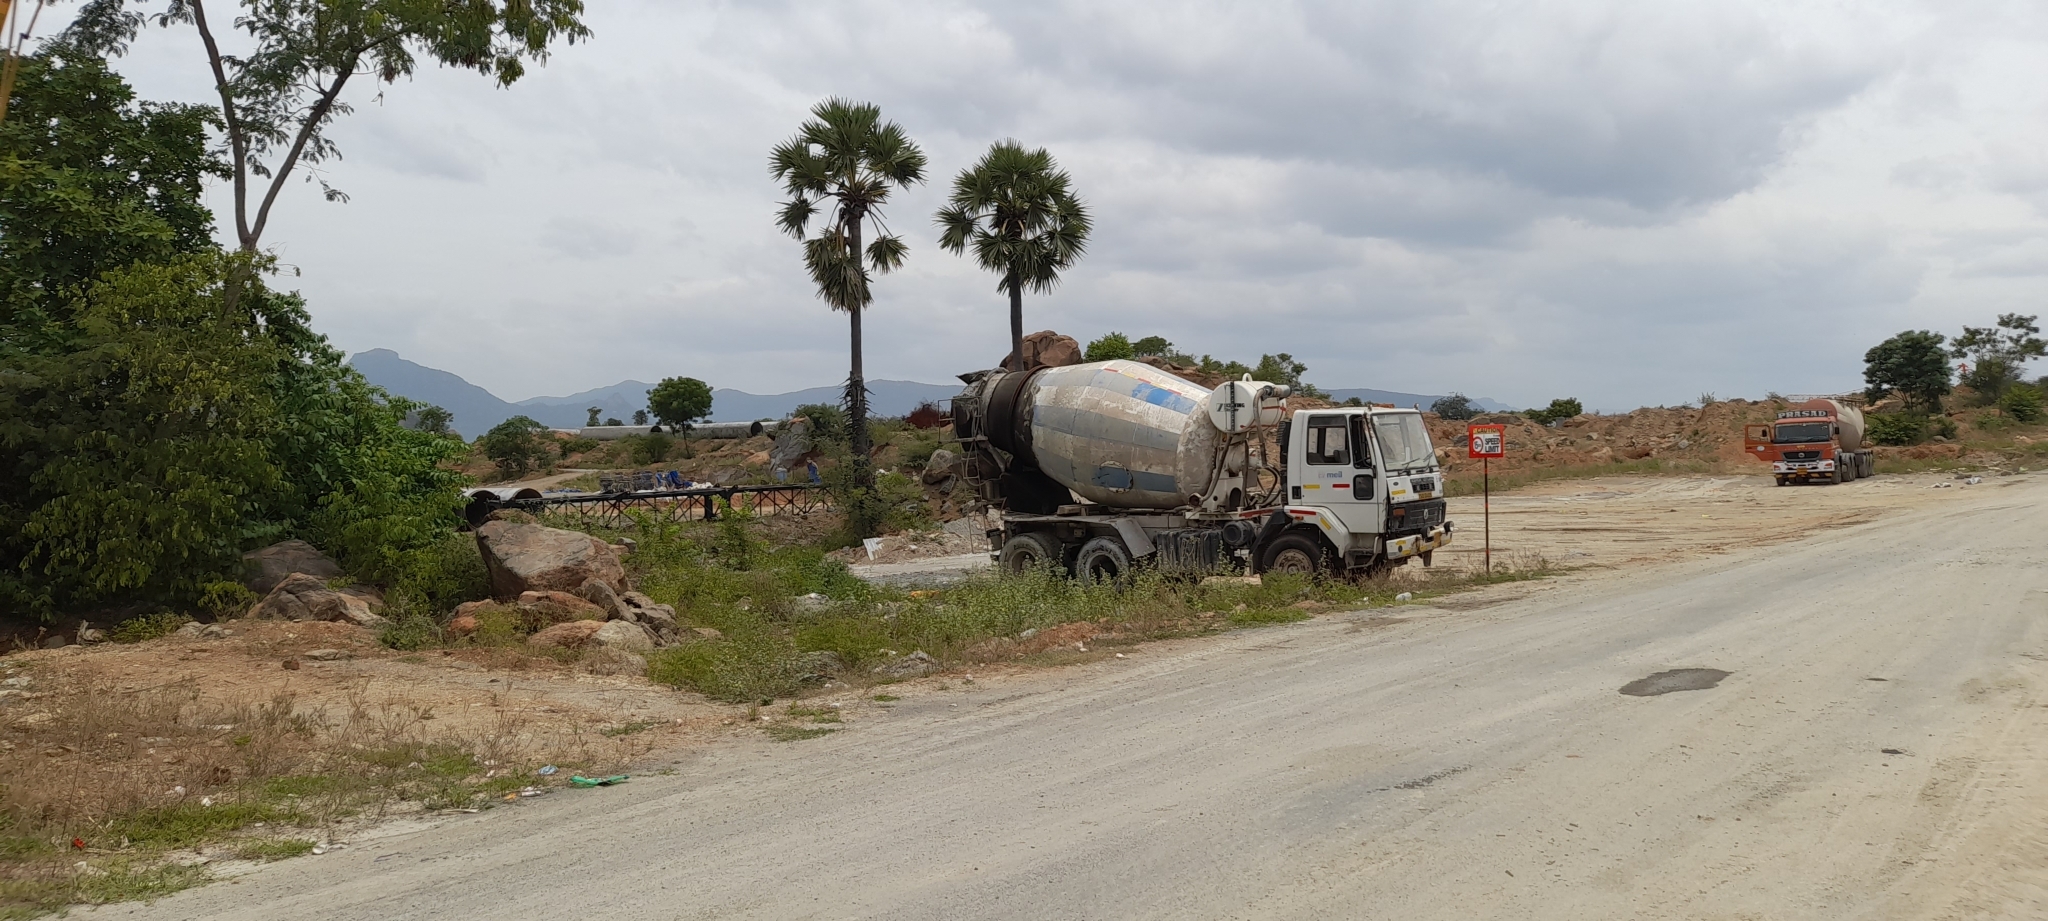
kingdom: Plantae
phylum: Tracheophyta
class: Liliopsida
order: Arecales
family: Arecaceae
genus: Borassus
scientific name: Borassus flabellifer
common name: Palmyra palm
